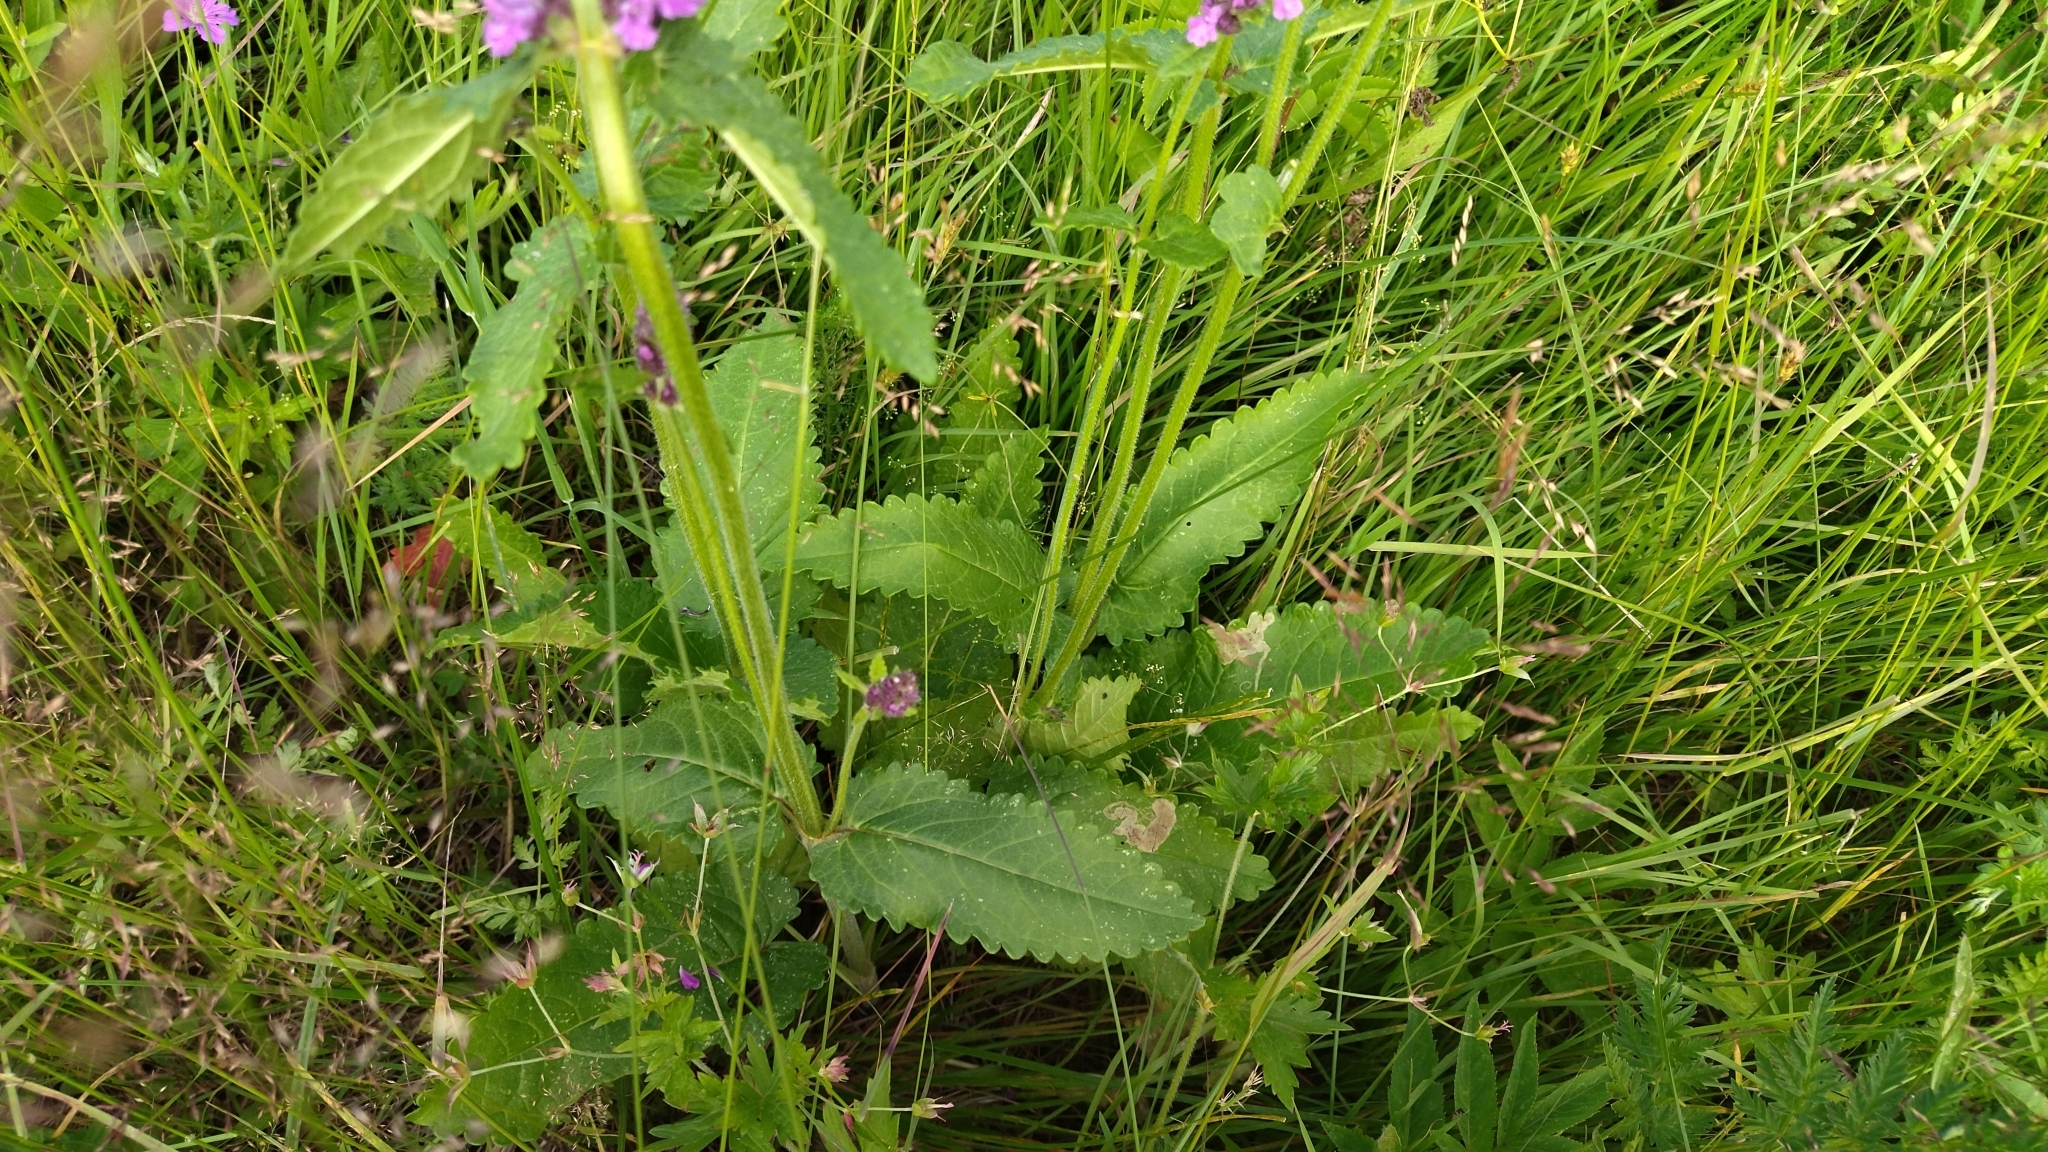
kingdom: Plantae
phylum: Tracheophyta
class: Magnoliopsida
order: Lamiales
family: Lamiaceae
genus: Betonica
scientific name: Betonica officinalis
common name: Bishop's-wort
